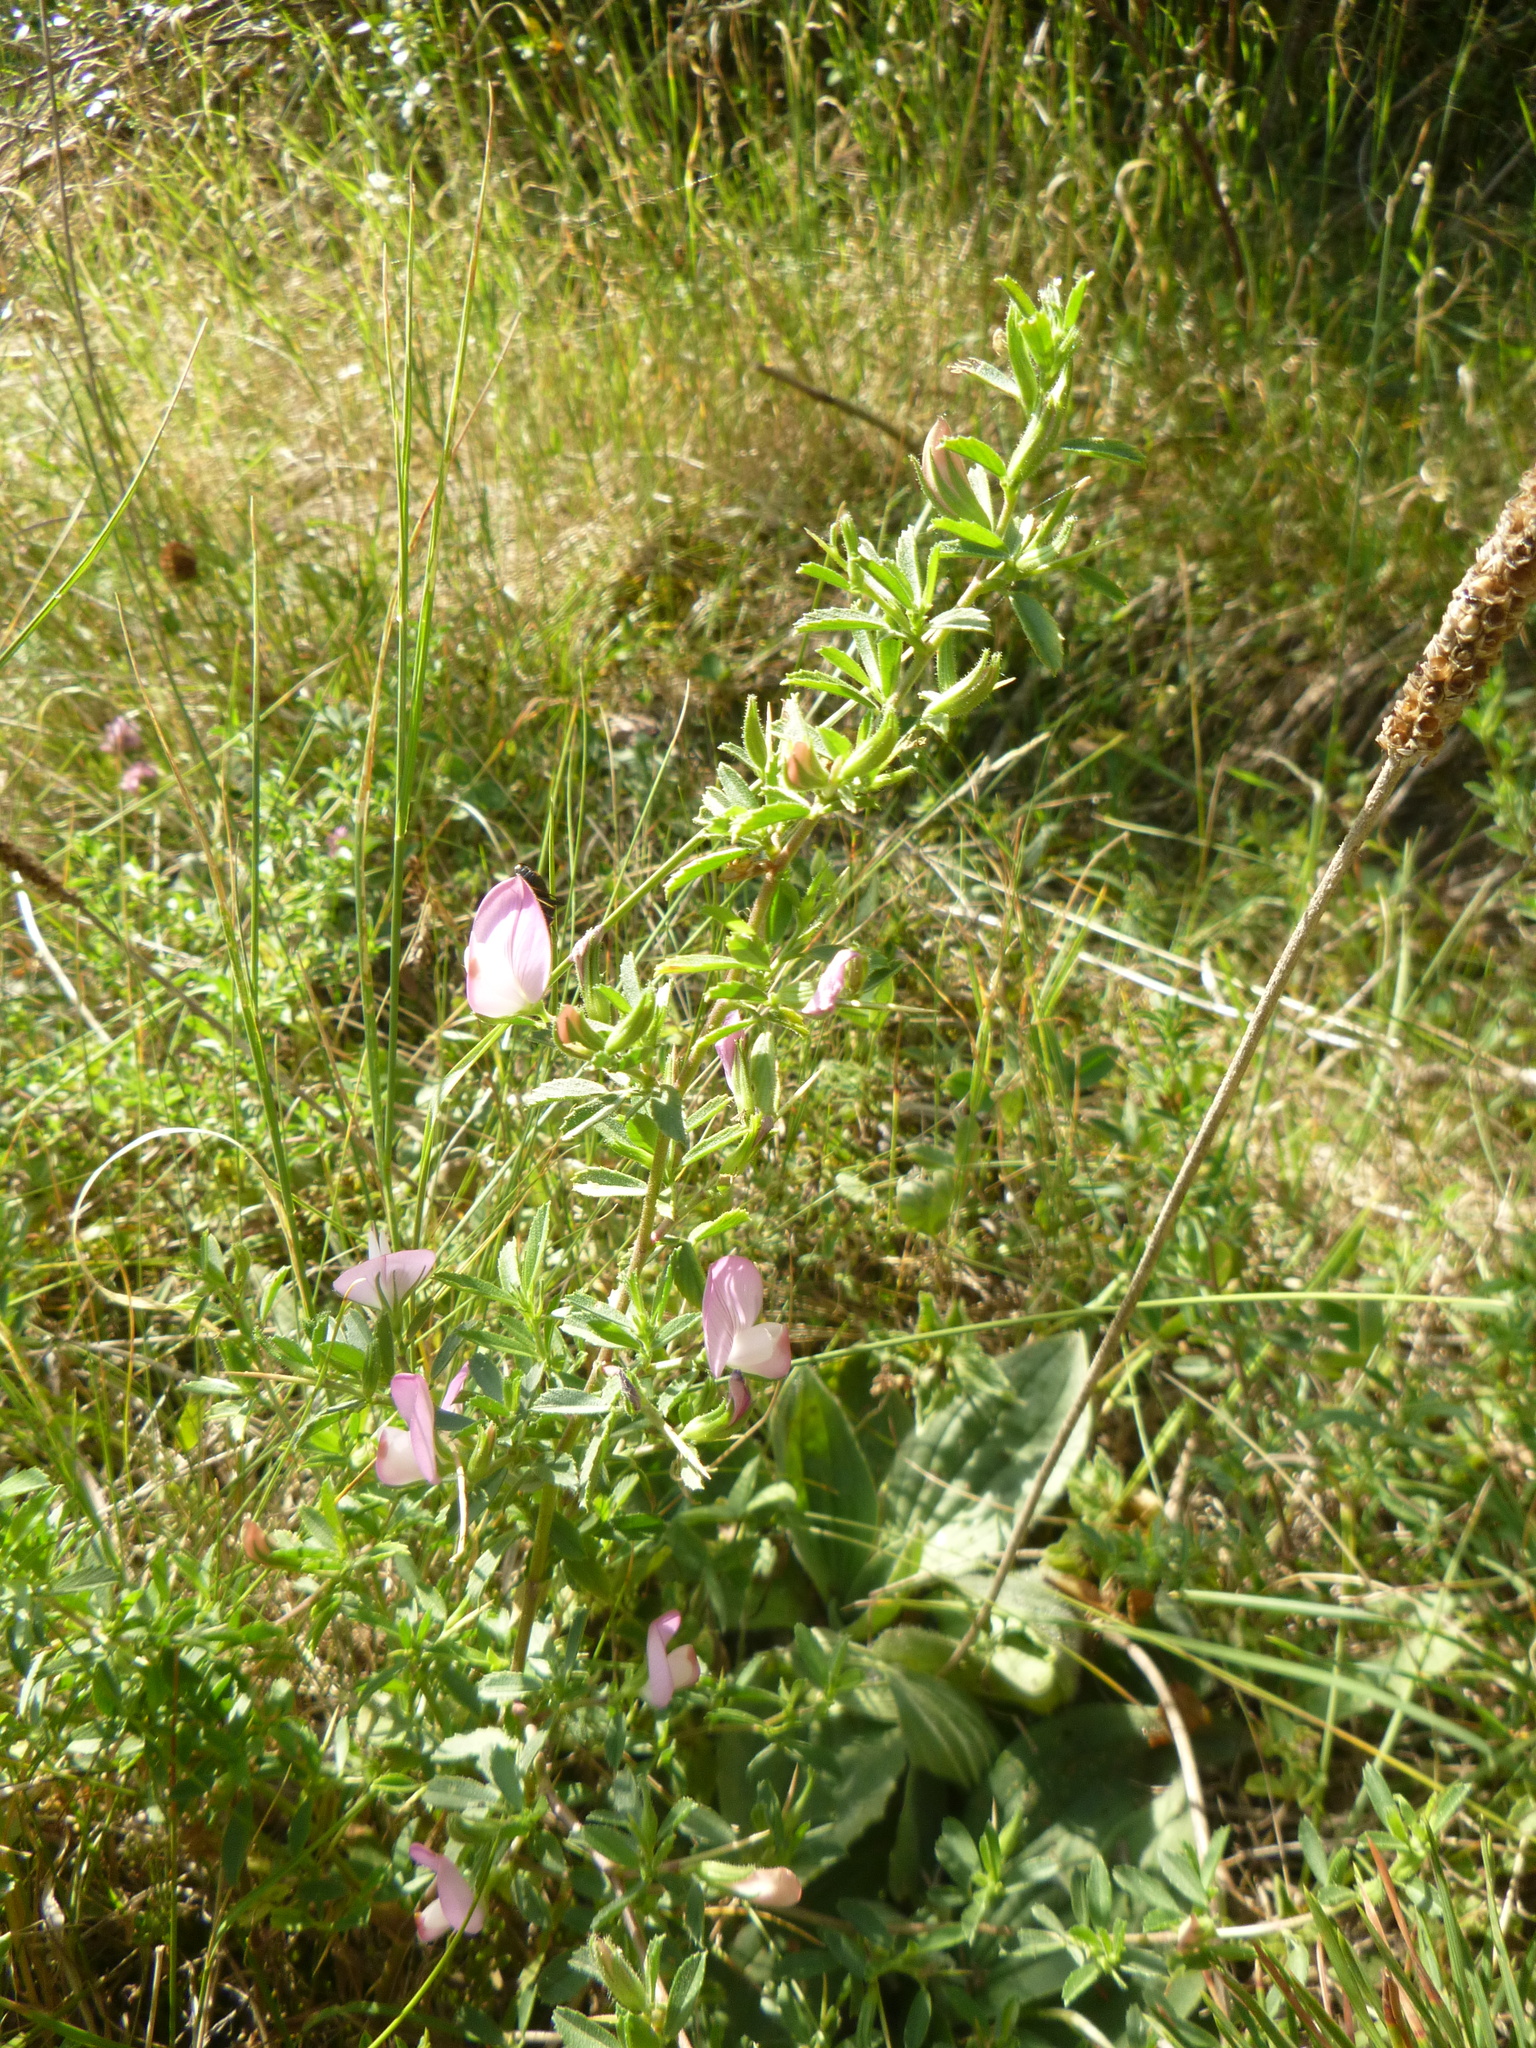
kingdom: Plantae
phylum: Tracheophyta
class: Magnoliopsida
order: Fabales
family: Fabaceae
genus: Ononis
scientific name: Ononis spinosa
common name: Spiny restharrow
